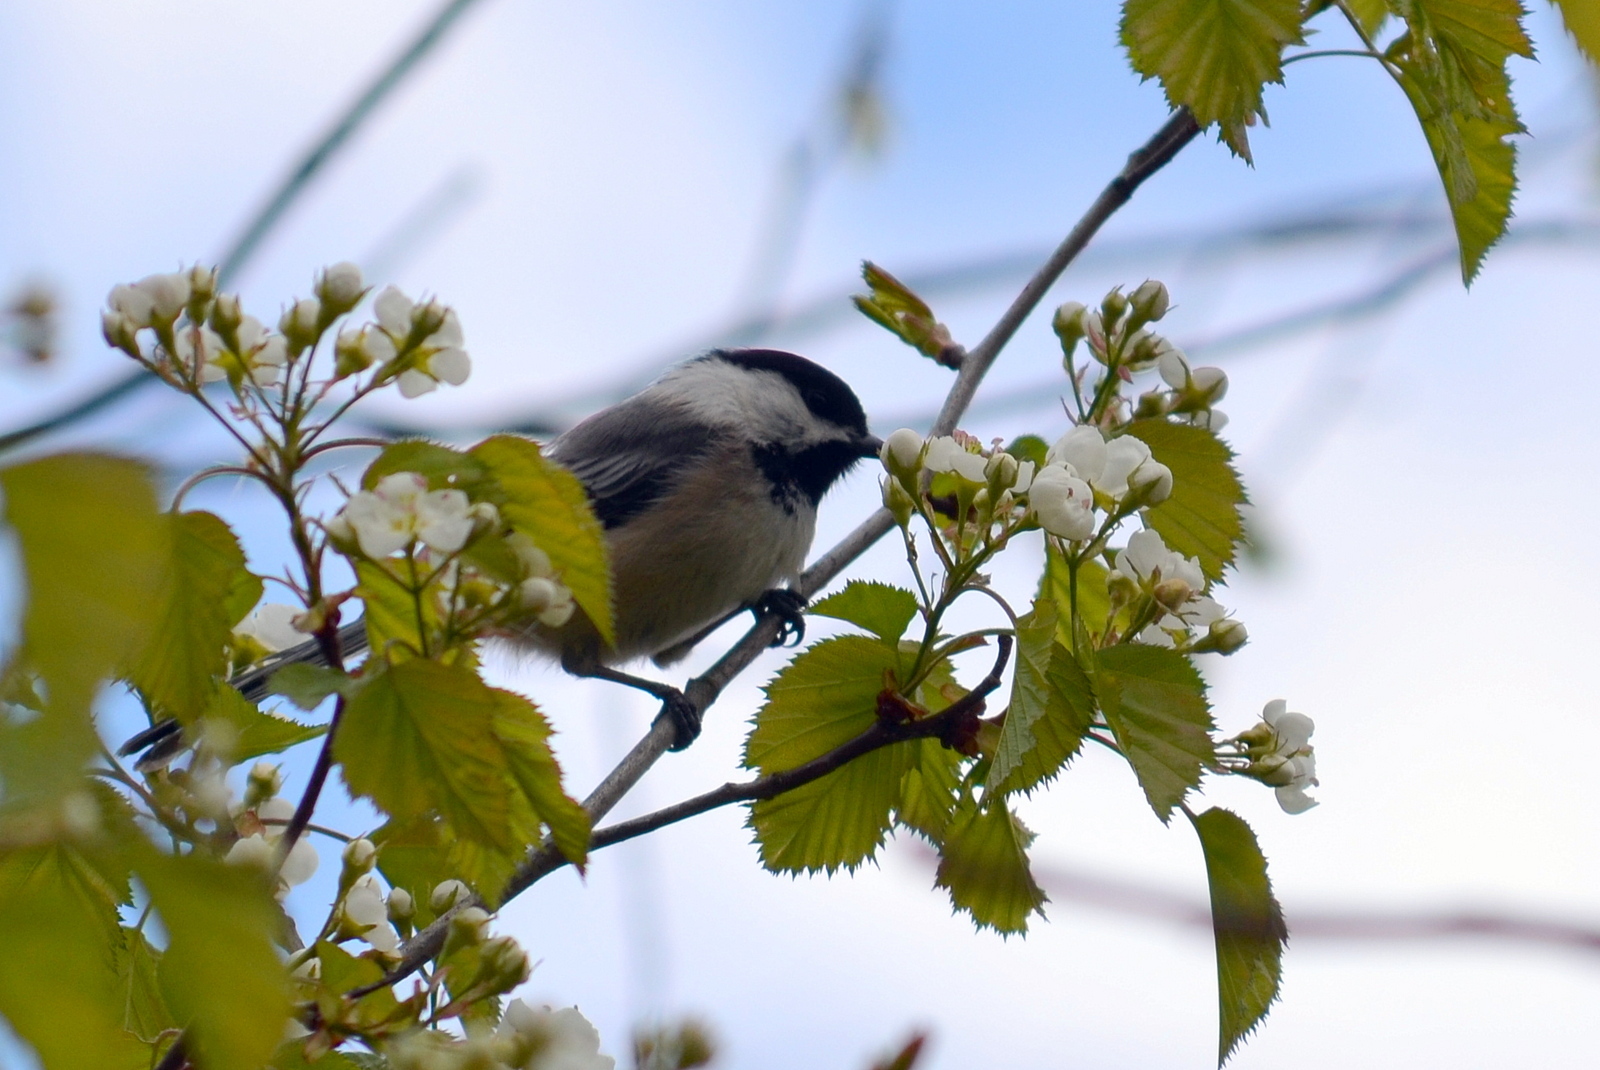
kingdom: Animalia
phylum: Chordata
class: Aves
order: Passeriformes
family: Paridae
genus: Poecile
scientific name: Poecile atricapillus
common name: Black-capped chickadee
